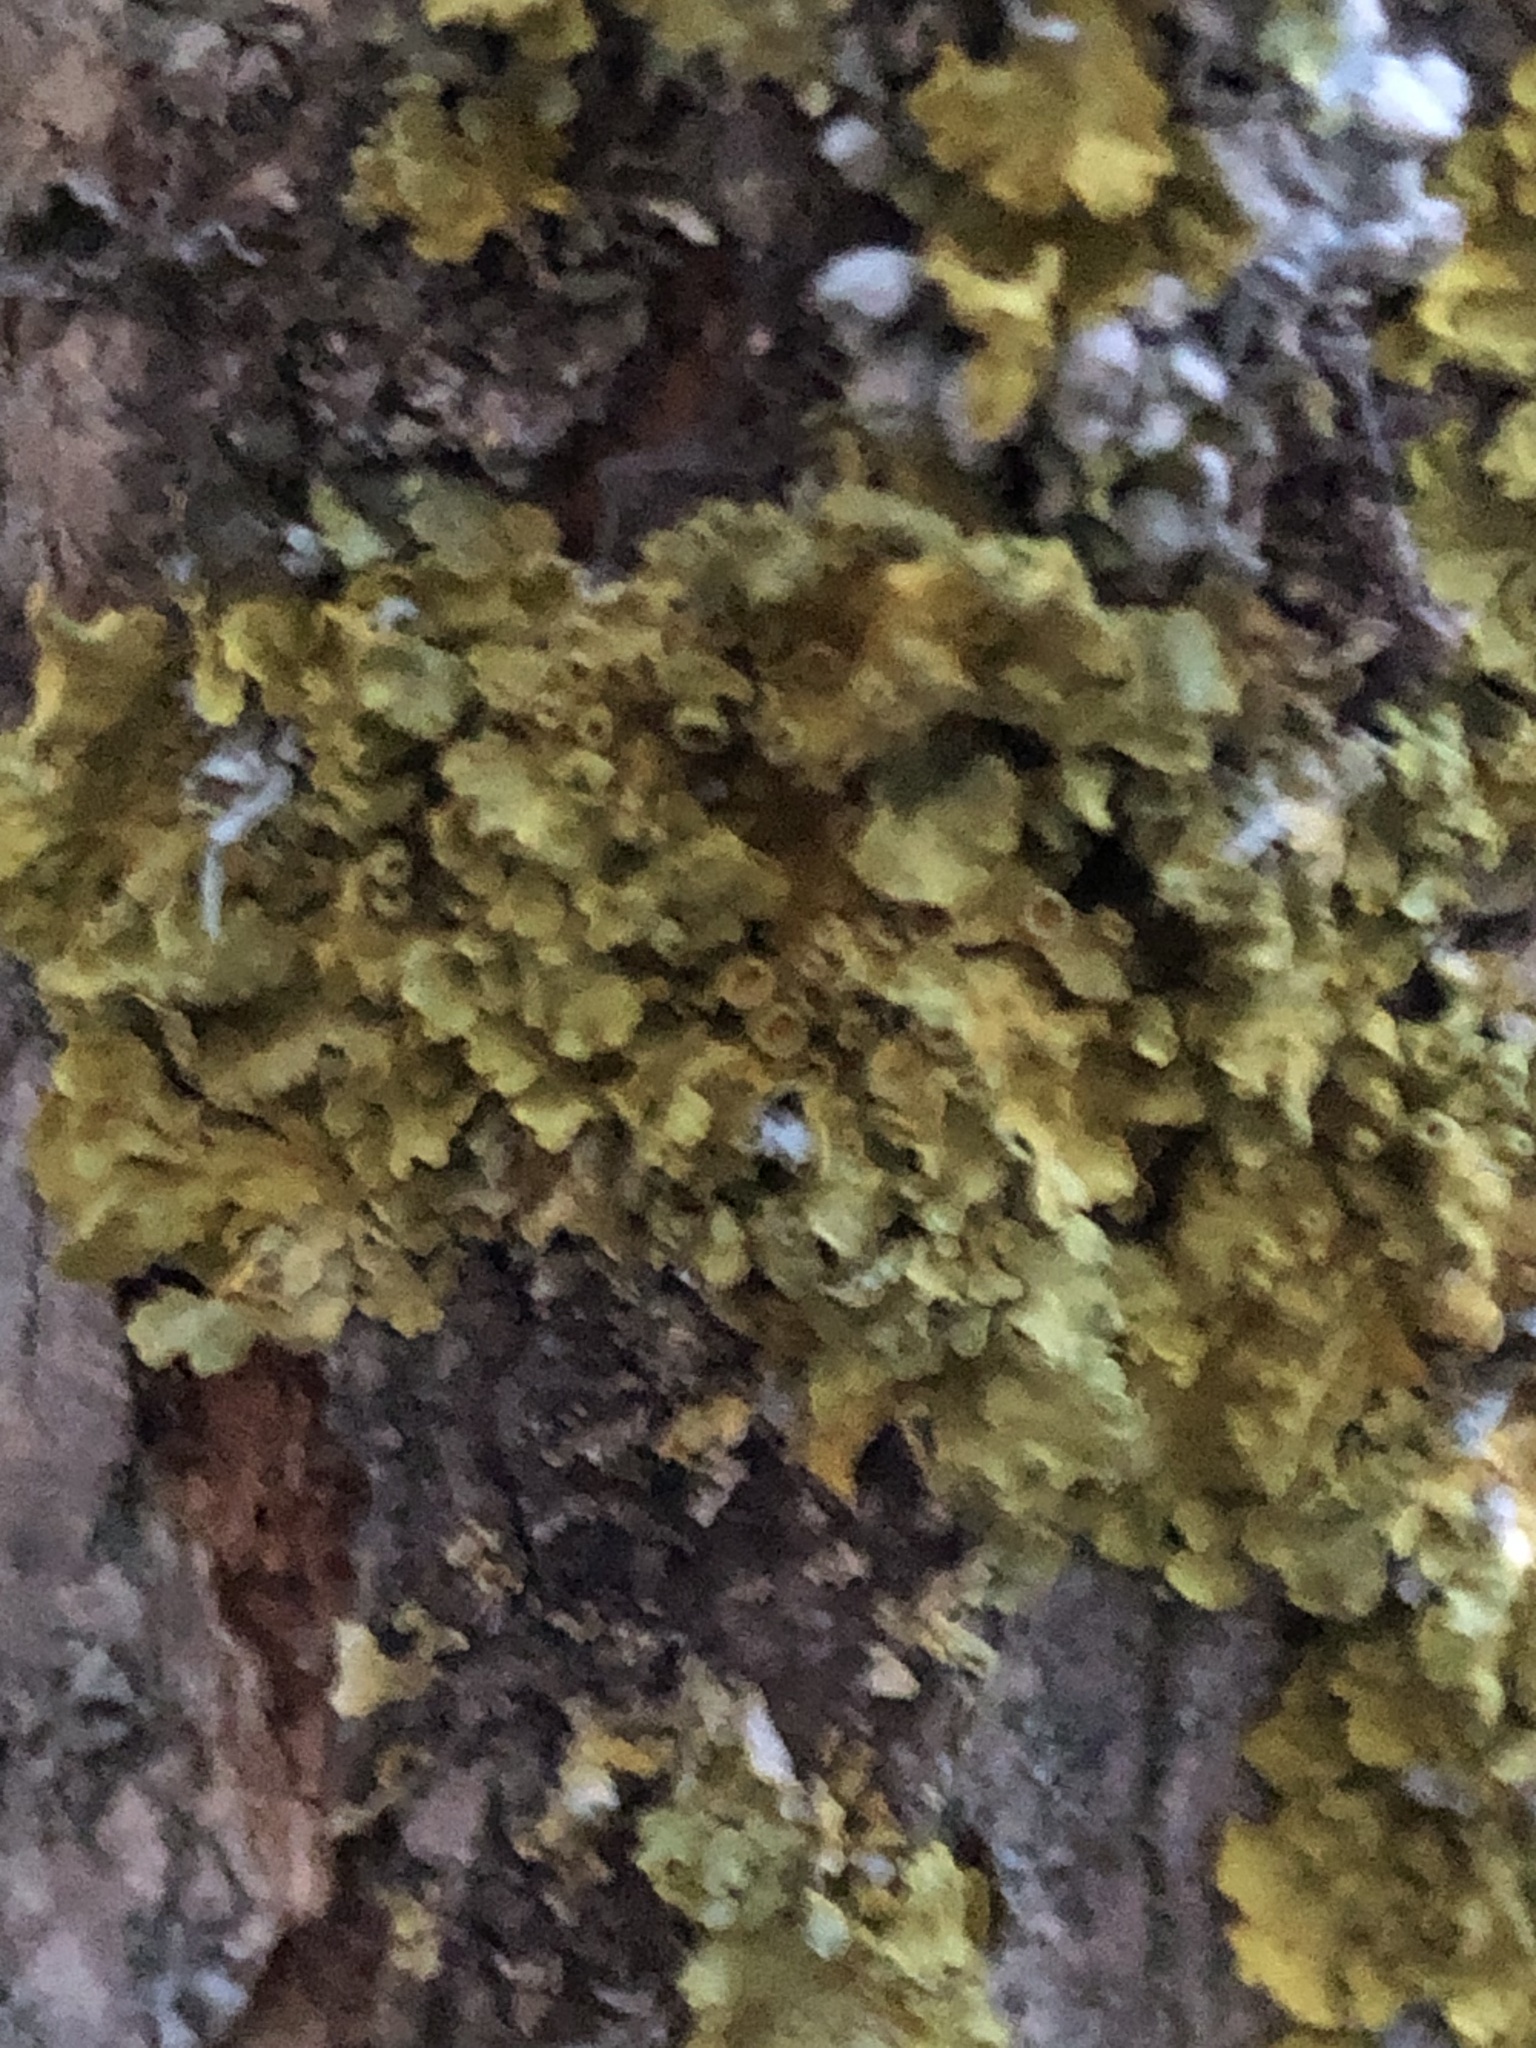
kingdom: Fungi
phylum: Ascomycota
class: Lecanoromycetes
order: Teloschistales
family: Teloschistaceae
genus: Xanthoria
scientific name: Xanthoria parietina
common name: Common orange lichen
